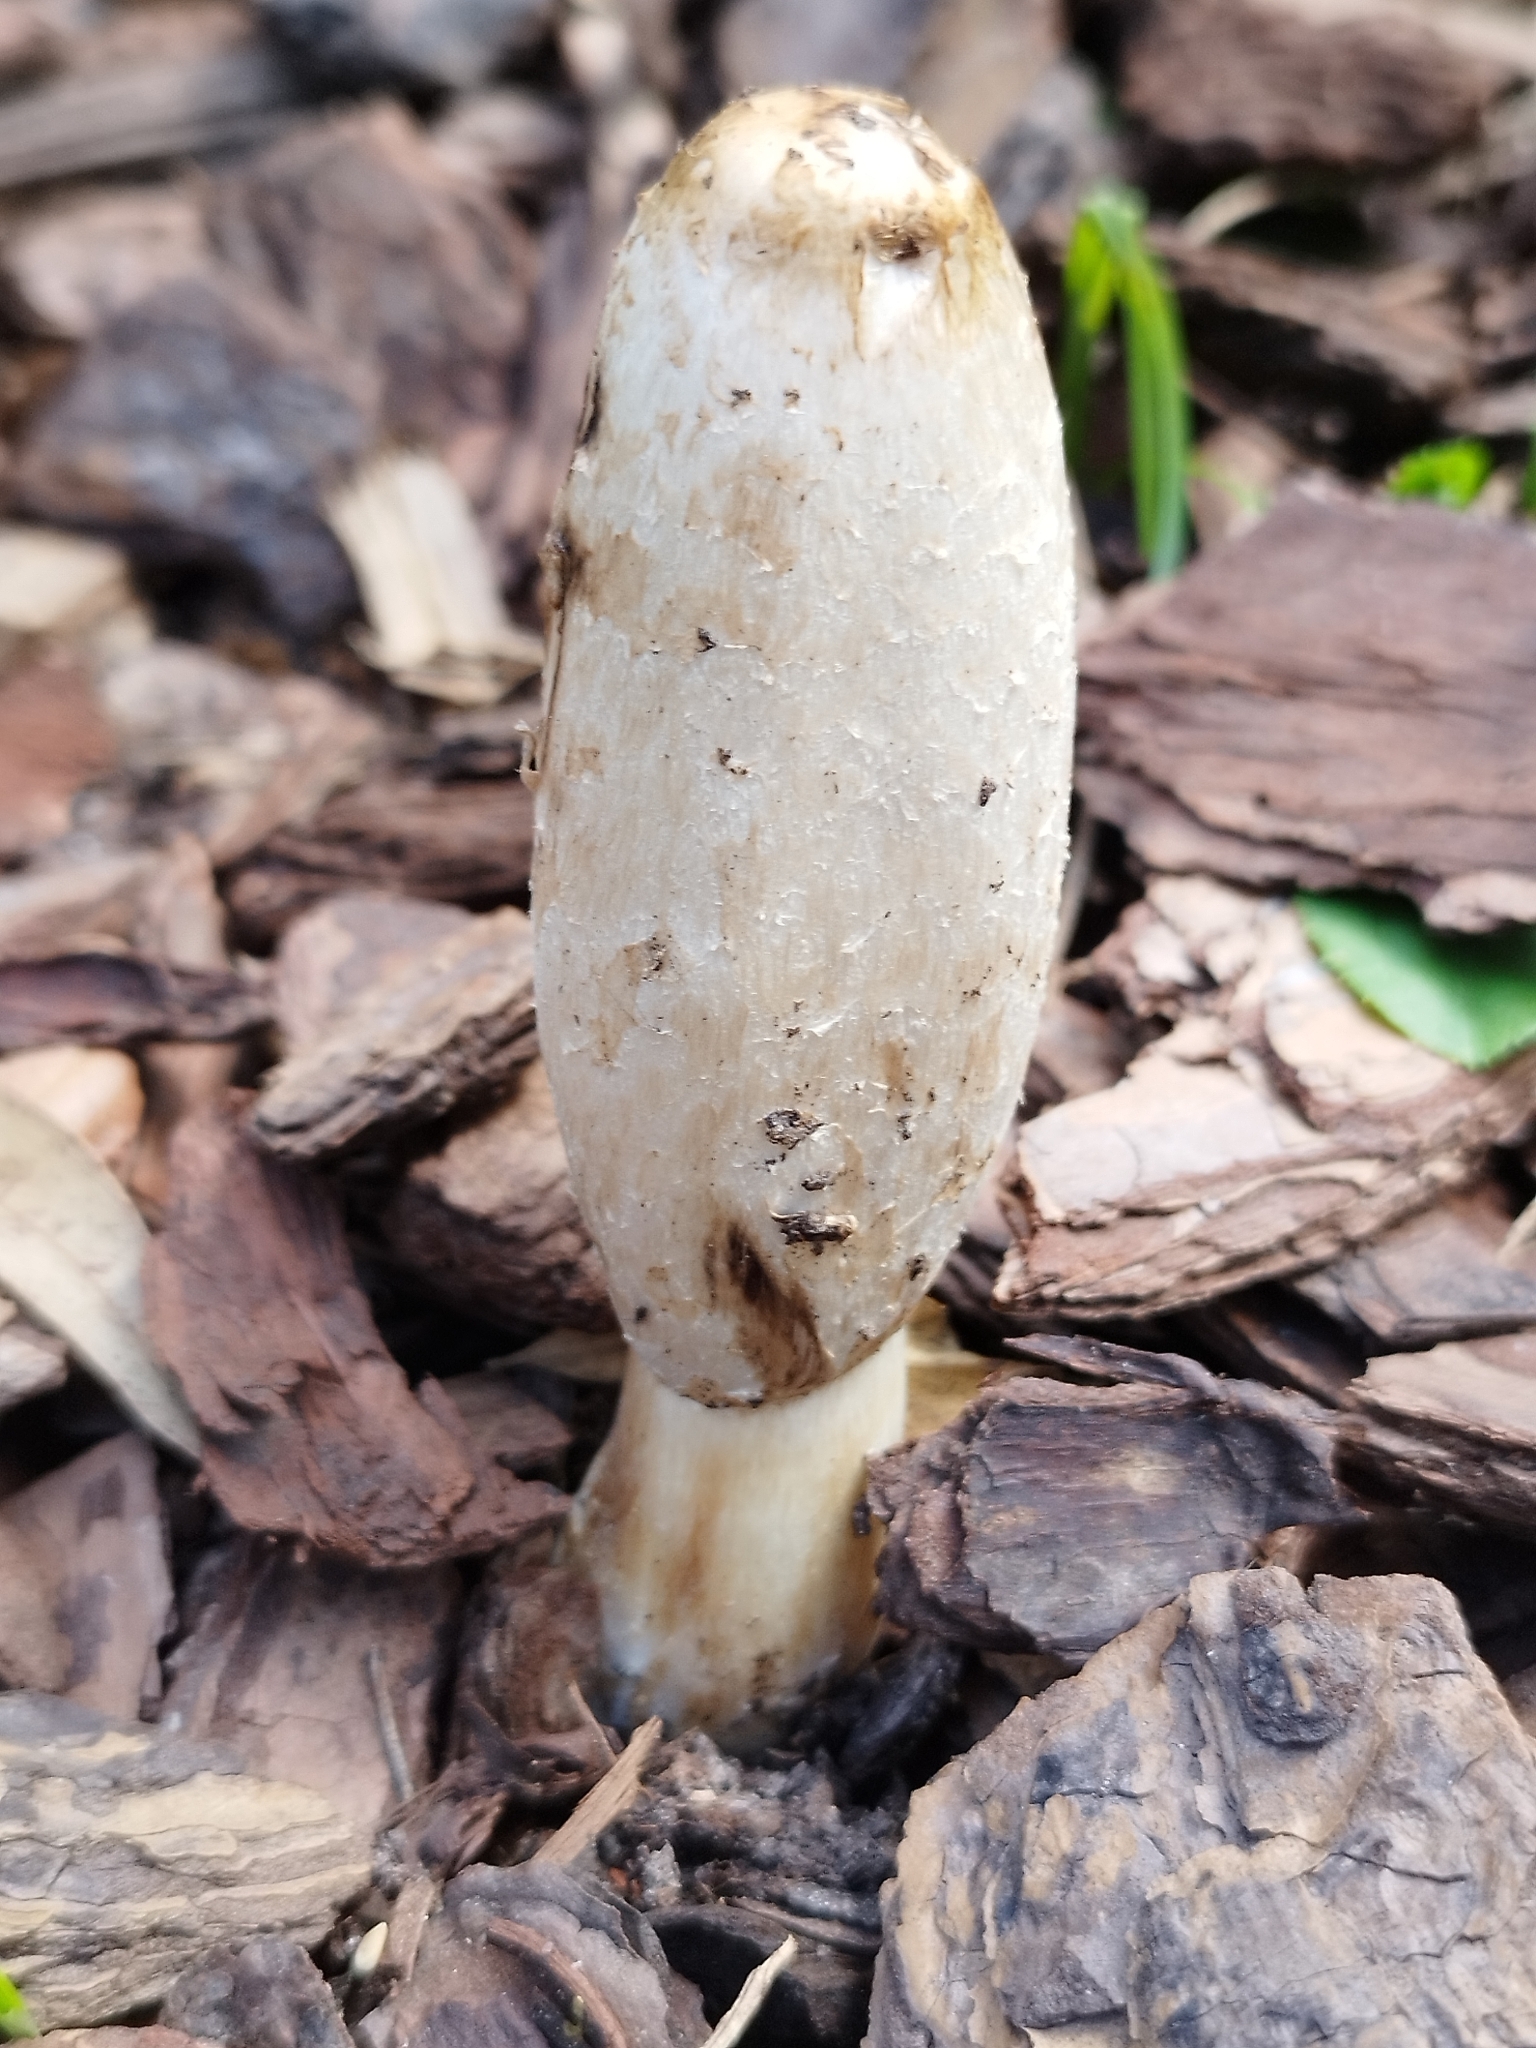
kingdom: Fungi
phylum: Basidiomycota
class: Agaricomycetes
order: Agaricales
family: Agaricaceae
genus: Coprinus
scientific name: Coprinus comatus
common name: Lawyer's wig
